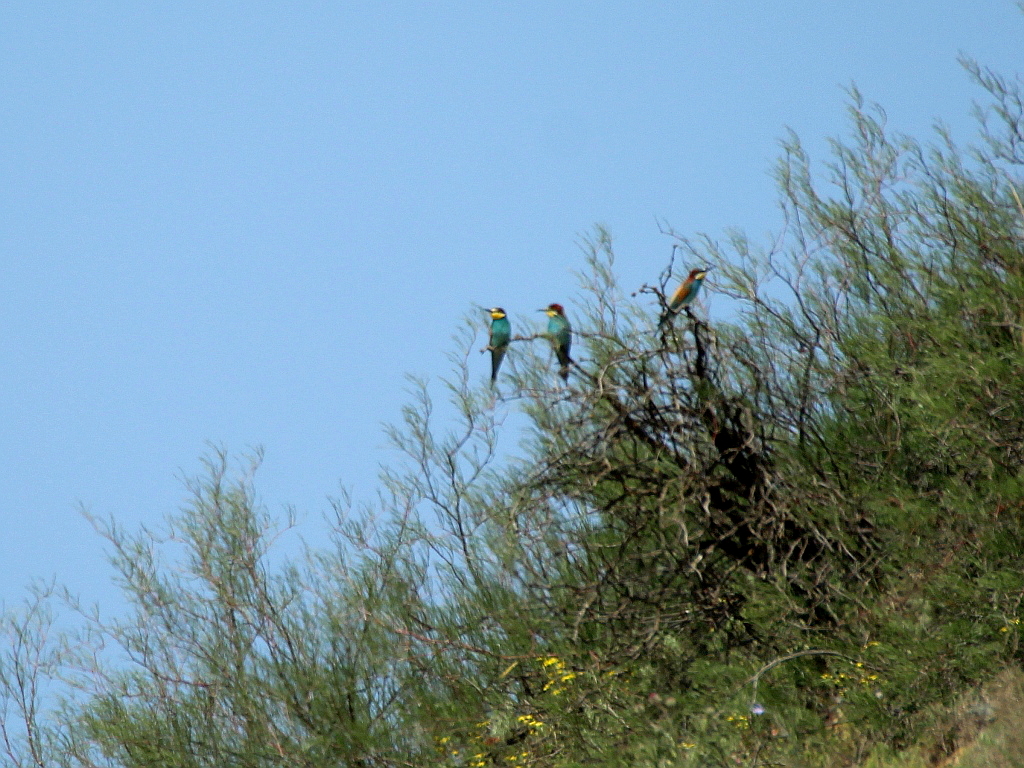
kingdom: Animalia
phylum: Chordata
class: Aves
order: Coraciiformes
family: Meropidae
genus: Merops
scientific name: Merops apiaster
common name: European bee-eater
